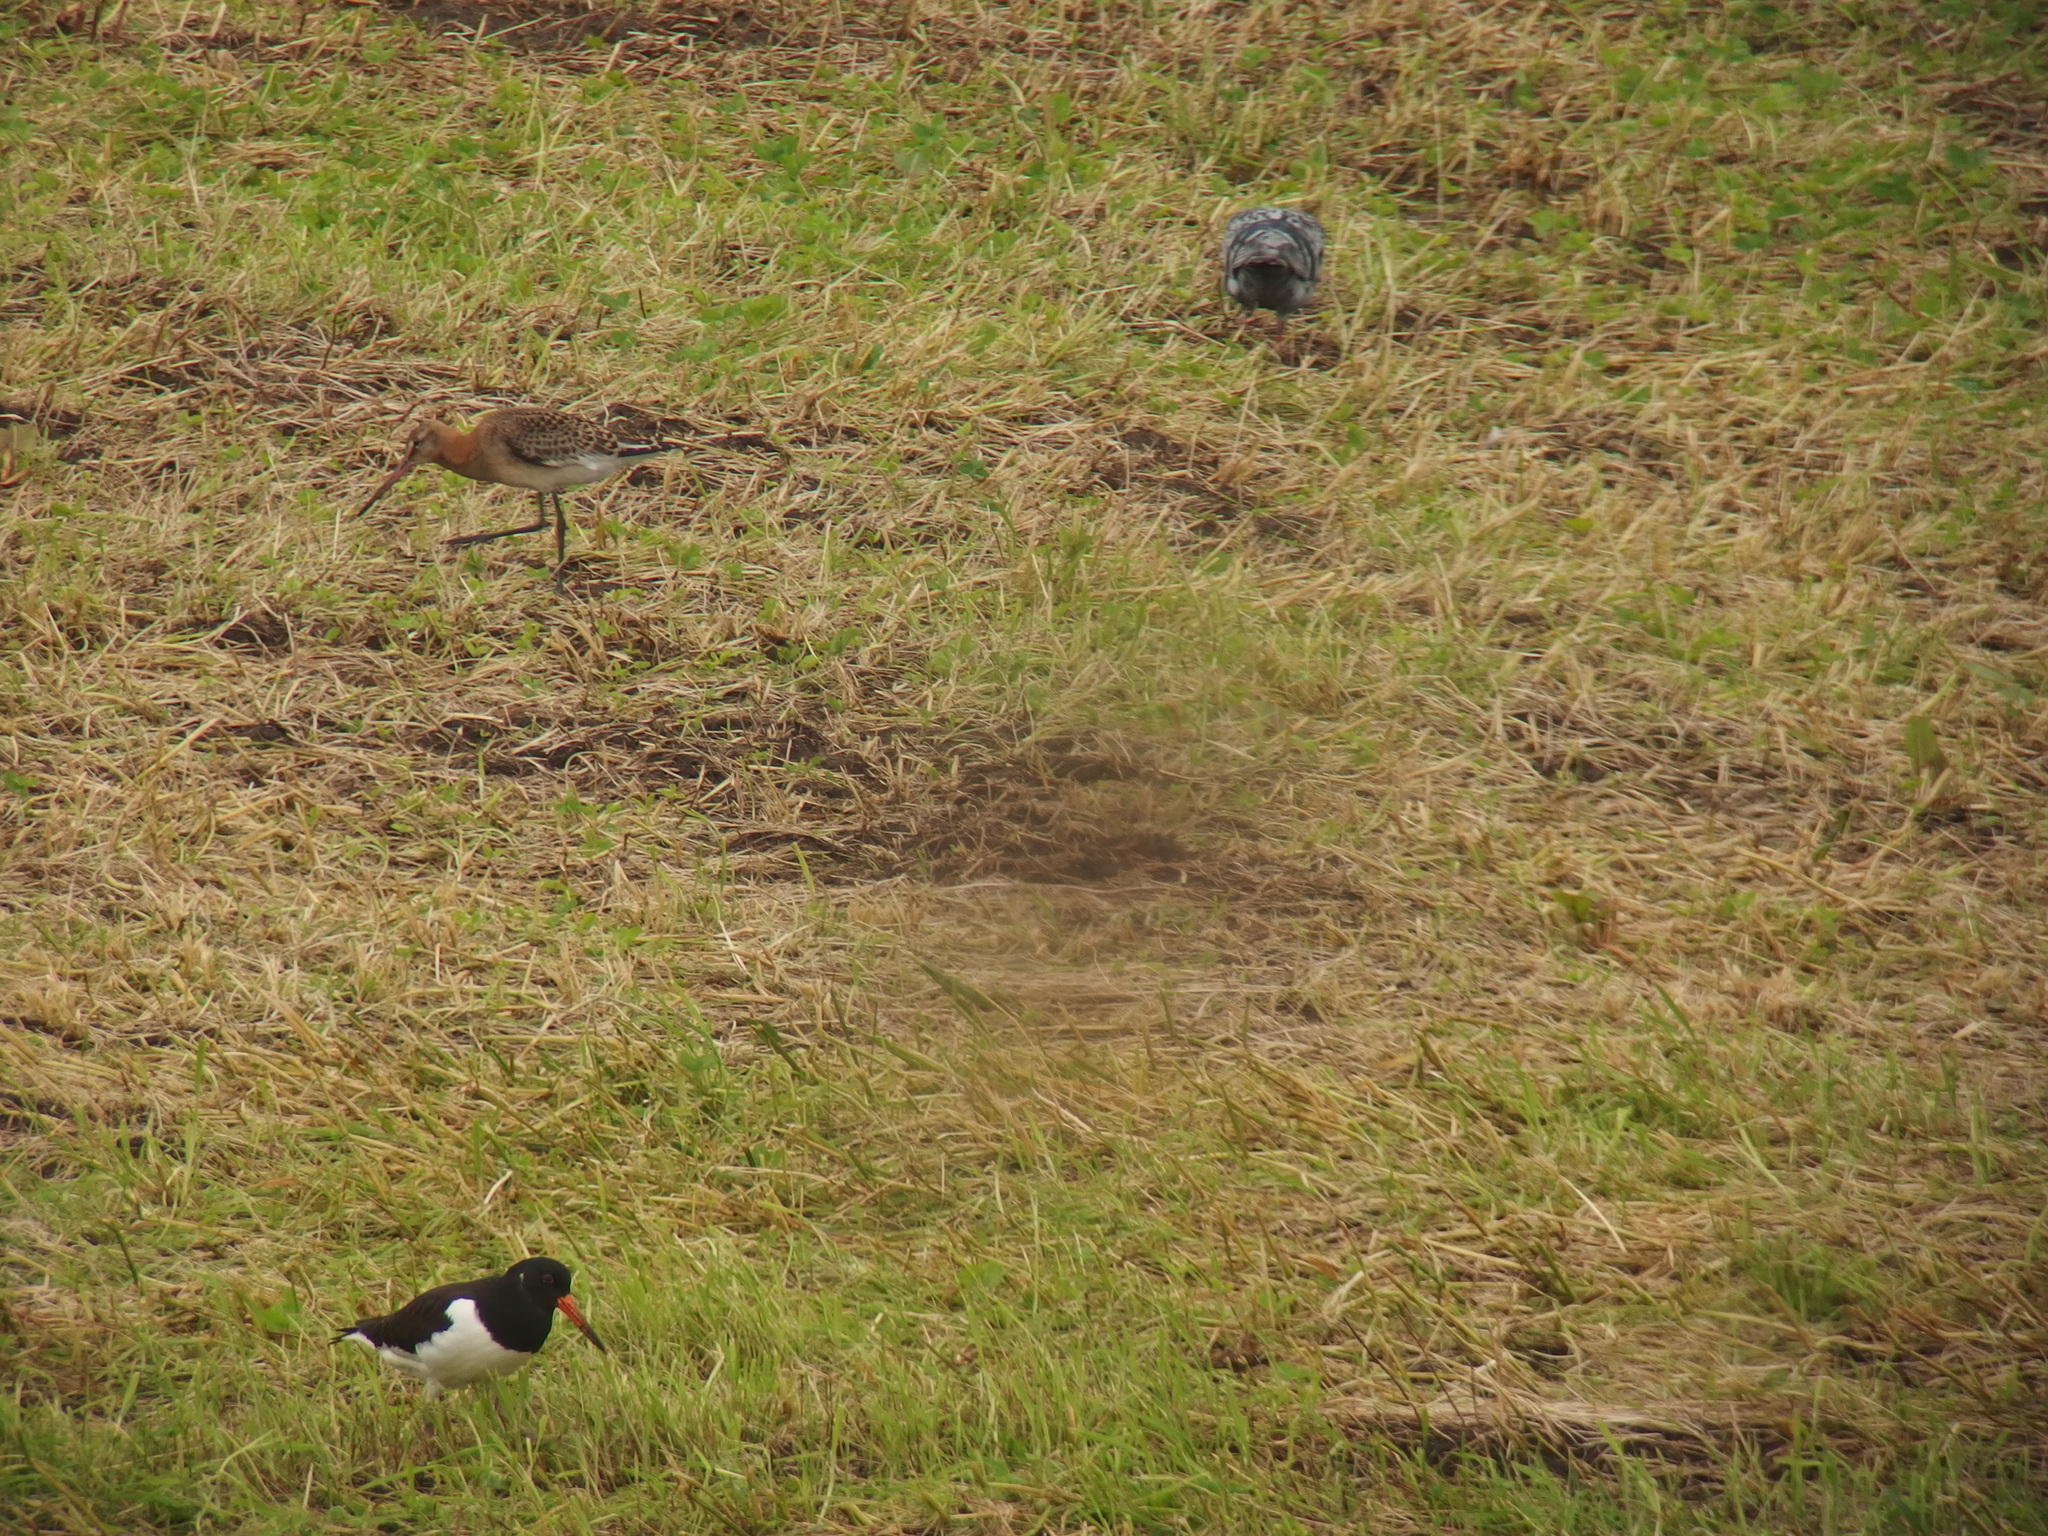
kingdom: Animalia
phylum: Chordata
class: Aves
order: Charadriiformes
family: Haematopodidae
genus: Haematopus
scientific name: Haematopus ostralegus
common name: Eurasian oystercatcher
